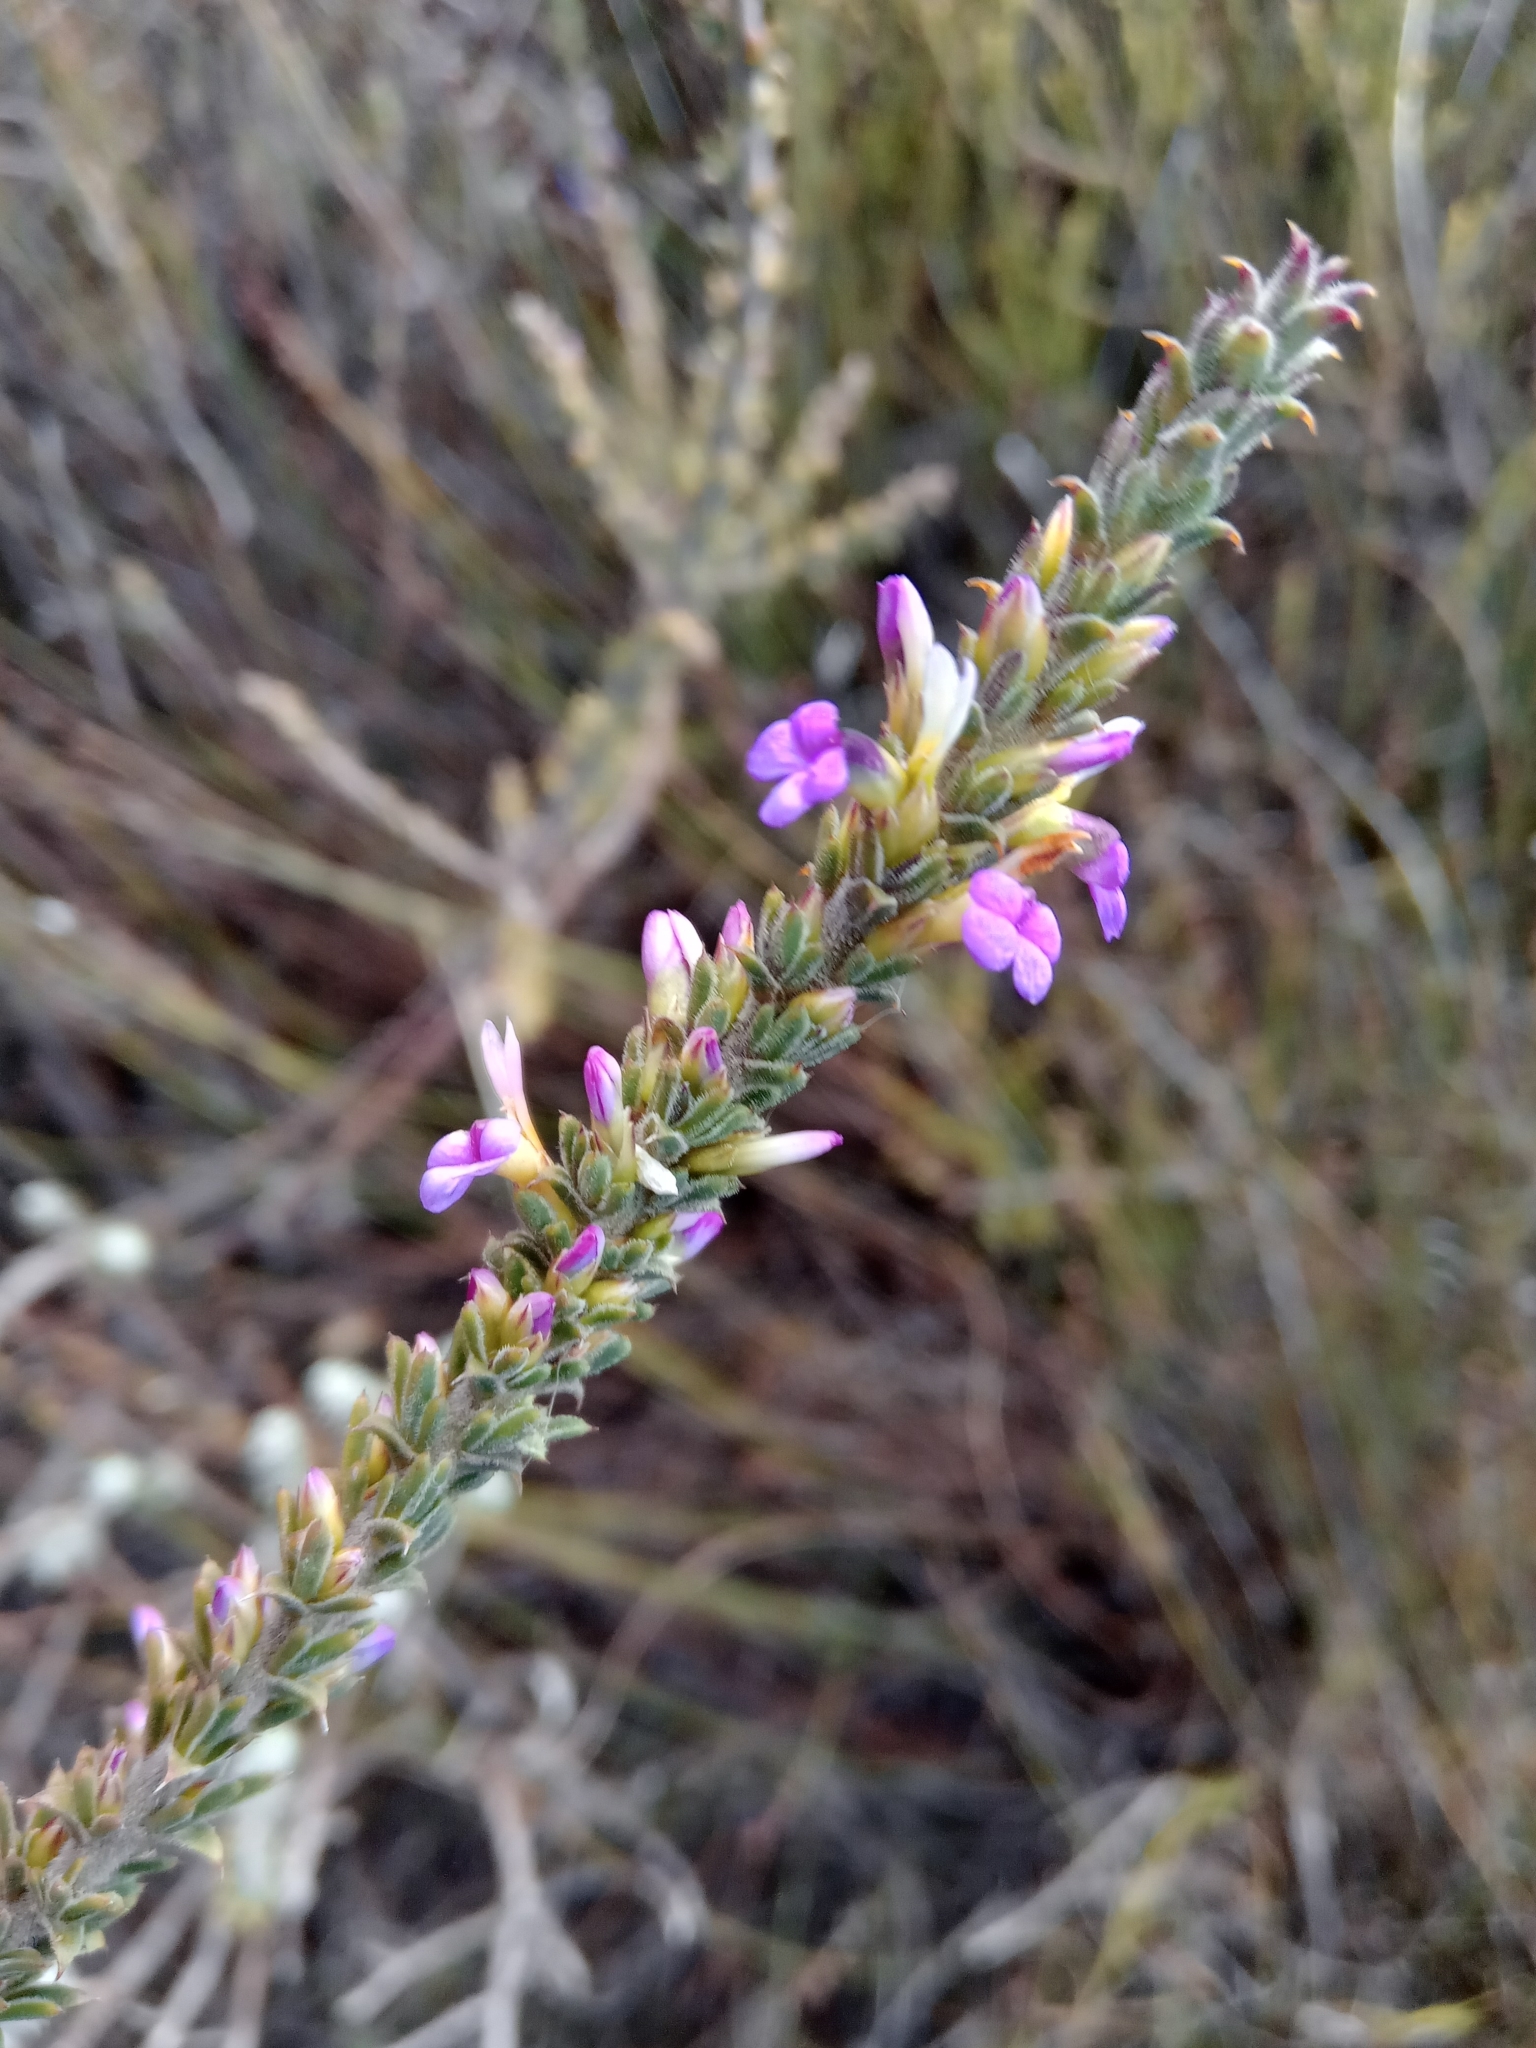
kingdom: Plantae
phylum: Tracheophyta
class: Magnoliopsida
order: Fabales
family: Polygalaceae
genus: Muraltia
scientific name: Muraltia macropetala
